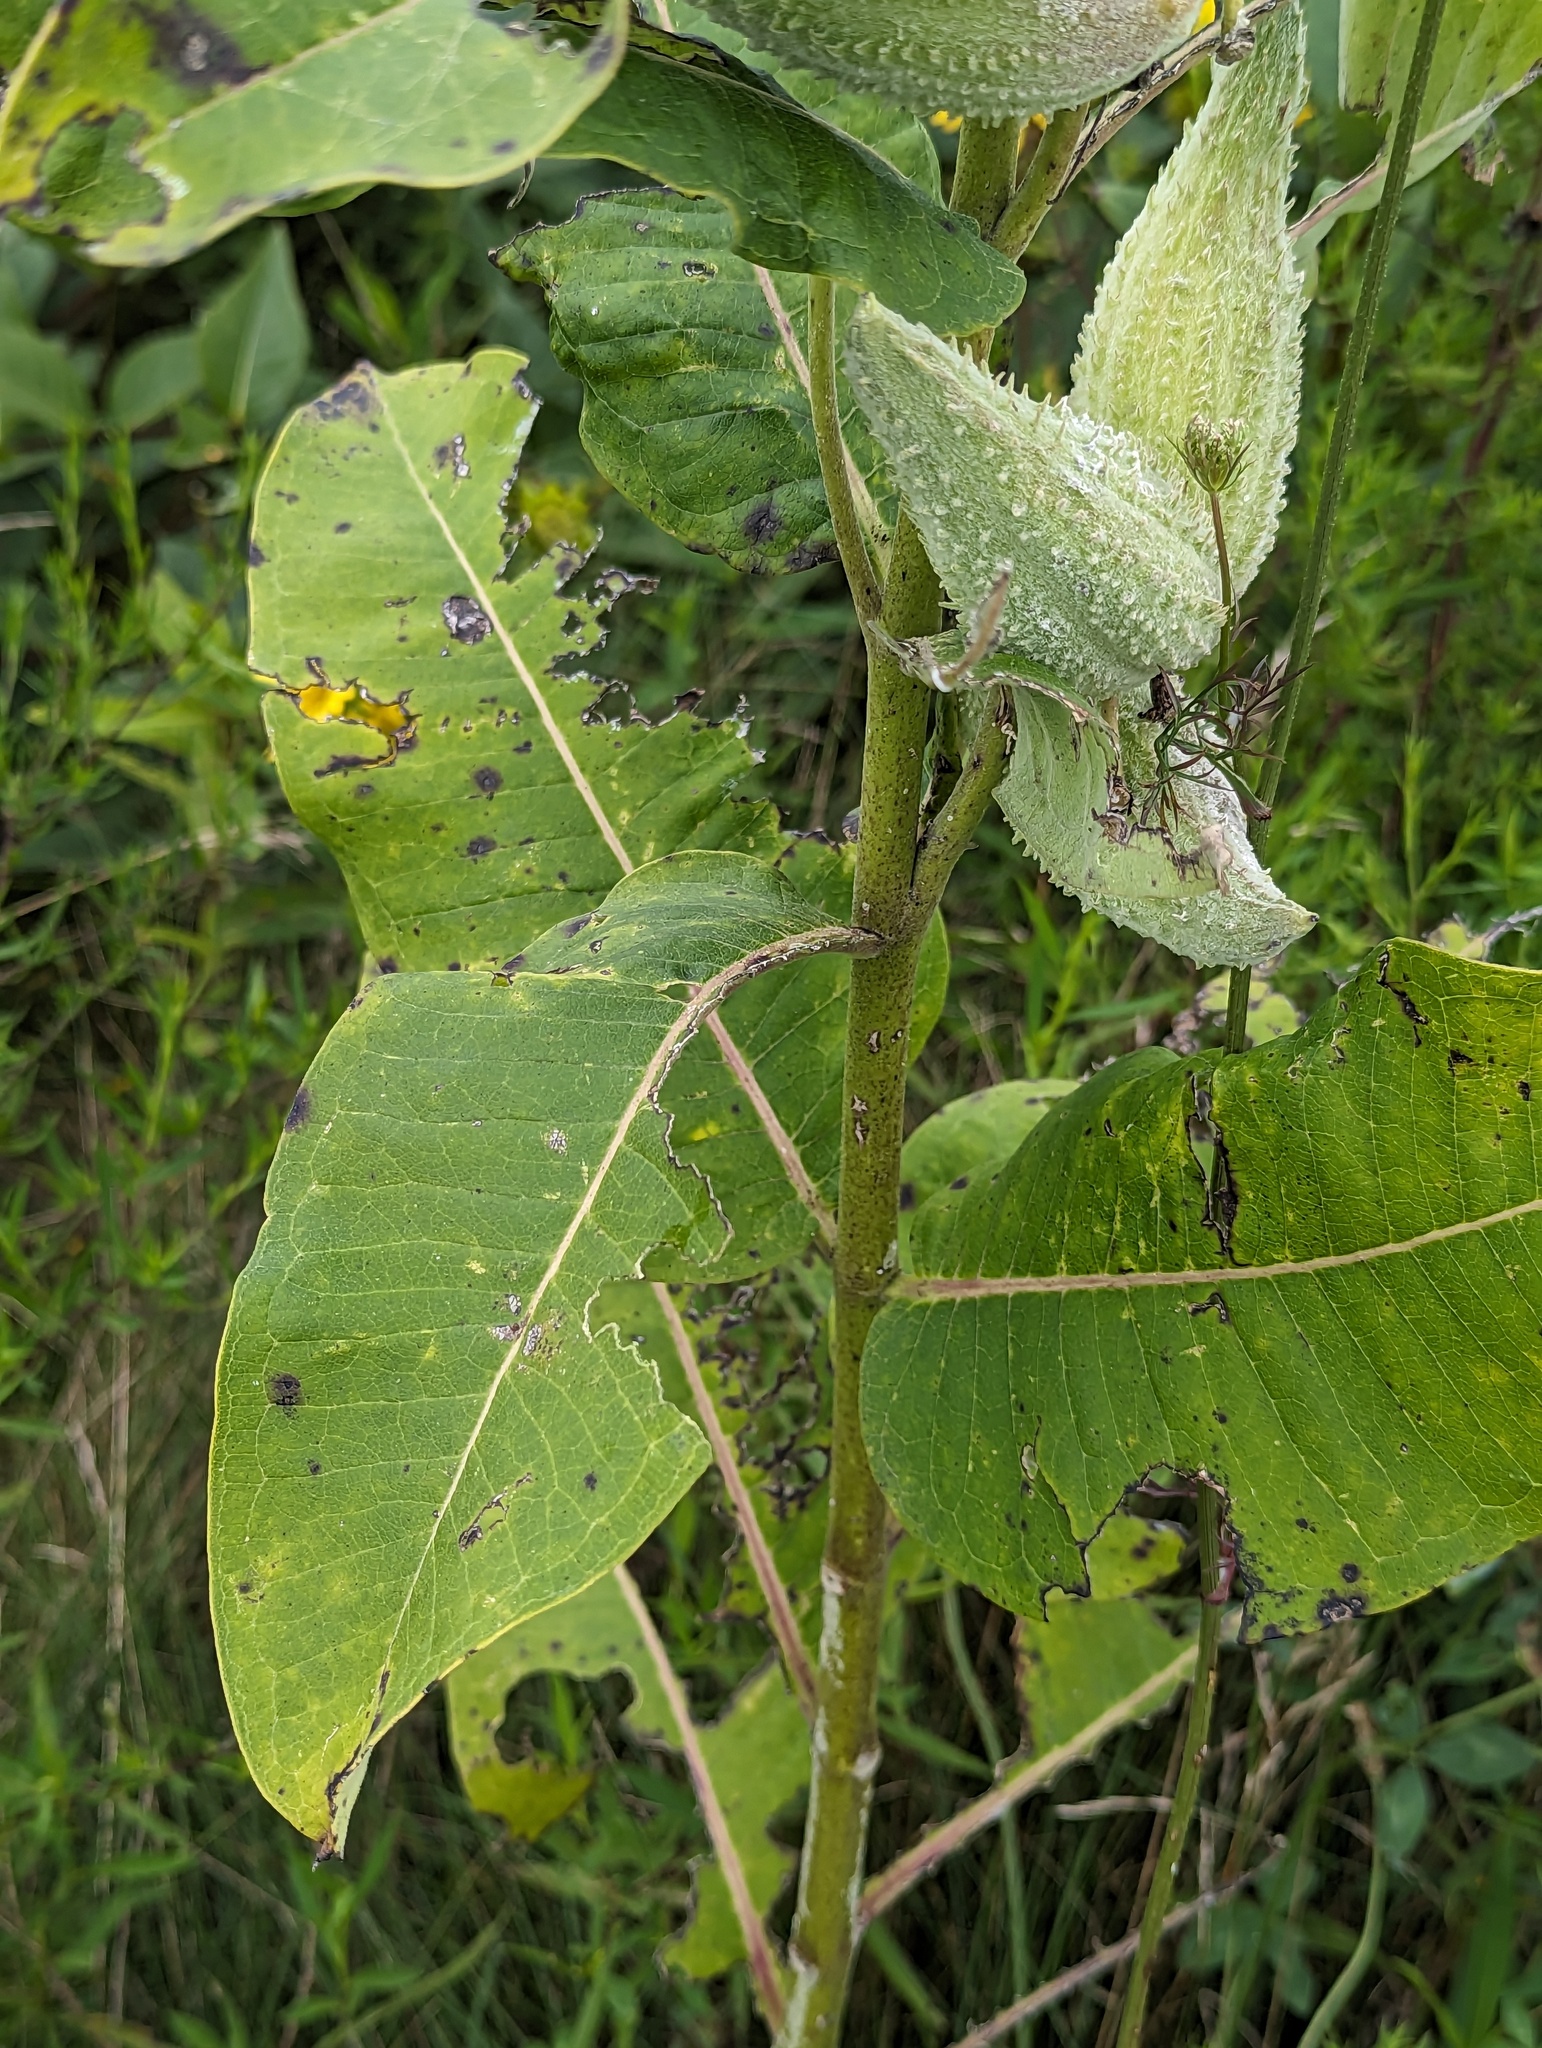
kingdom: Plantae
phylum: Tracheophyta
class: Magnoliopsida
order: Gentianales
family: Apocynaceae
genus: Asclepias
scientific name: Asclepias syriaca
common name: Common milkweed
